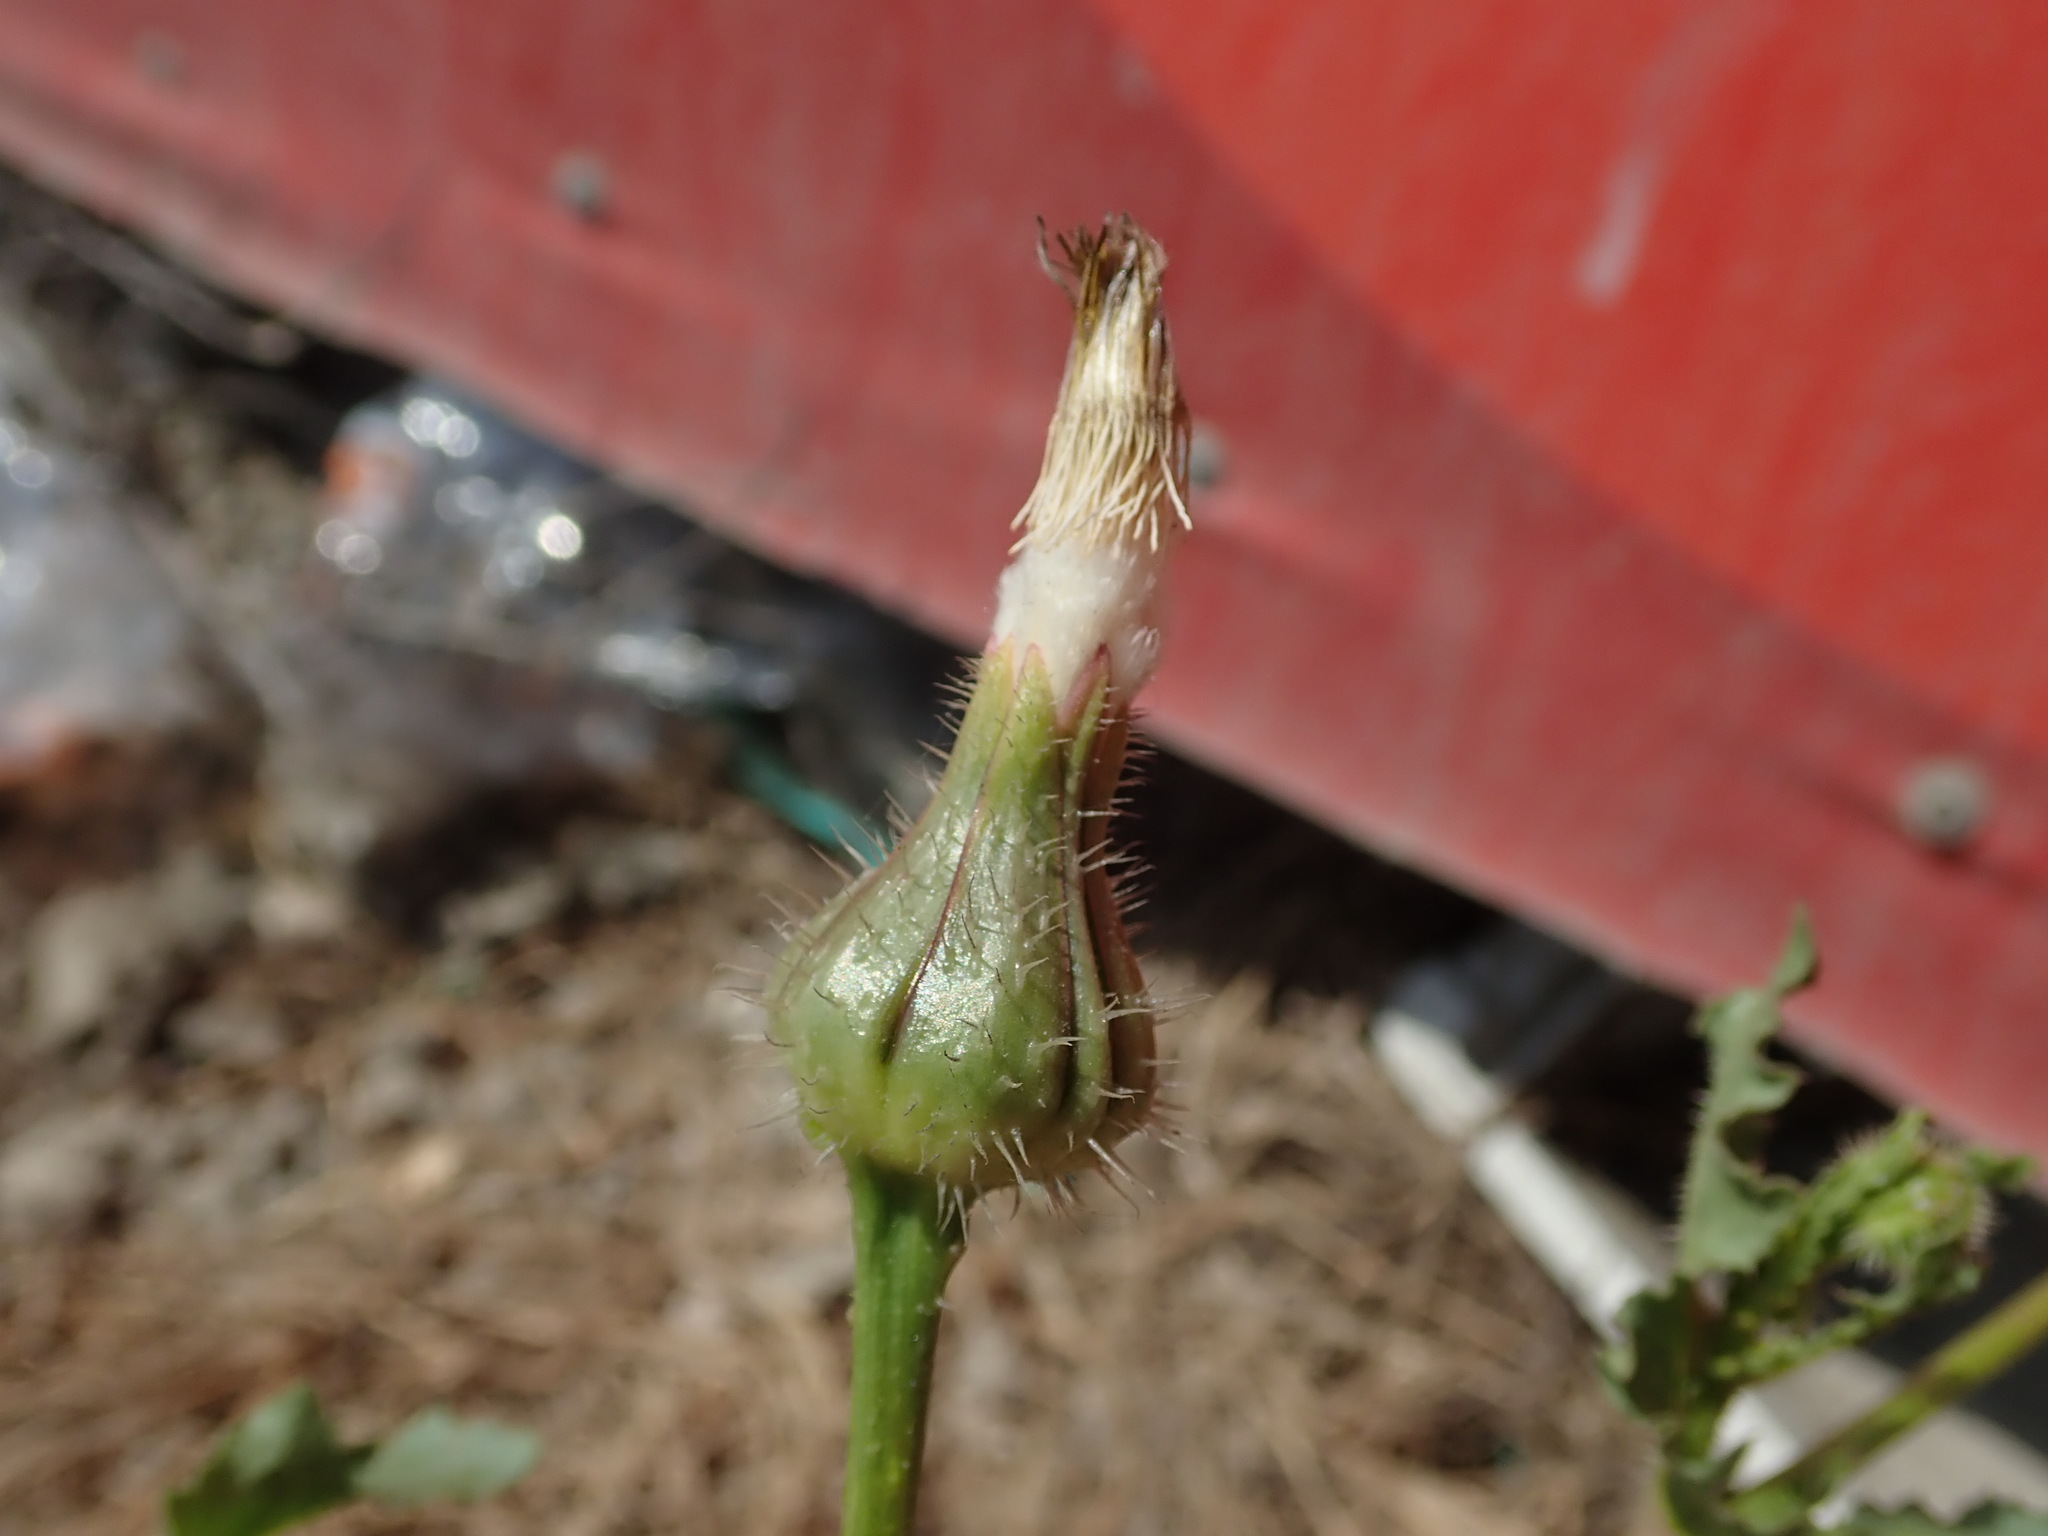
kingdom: Plantae
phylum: Tracheophyta
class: Magnoliopsida
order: Asterales
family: Asteraceae
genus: Urospermum
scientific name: Urospermum picroides
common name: False hawkbit
